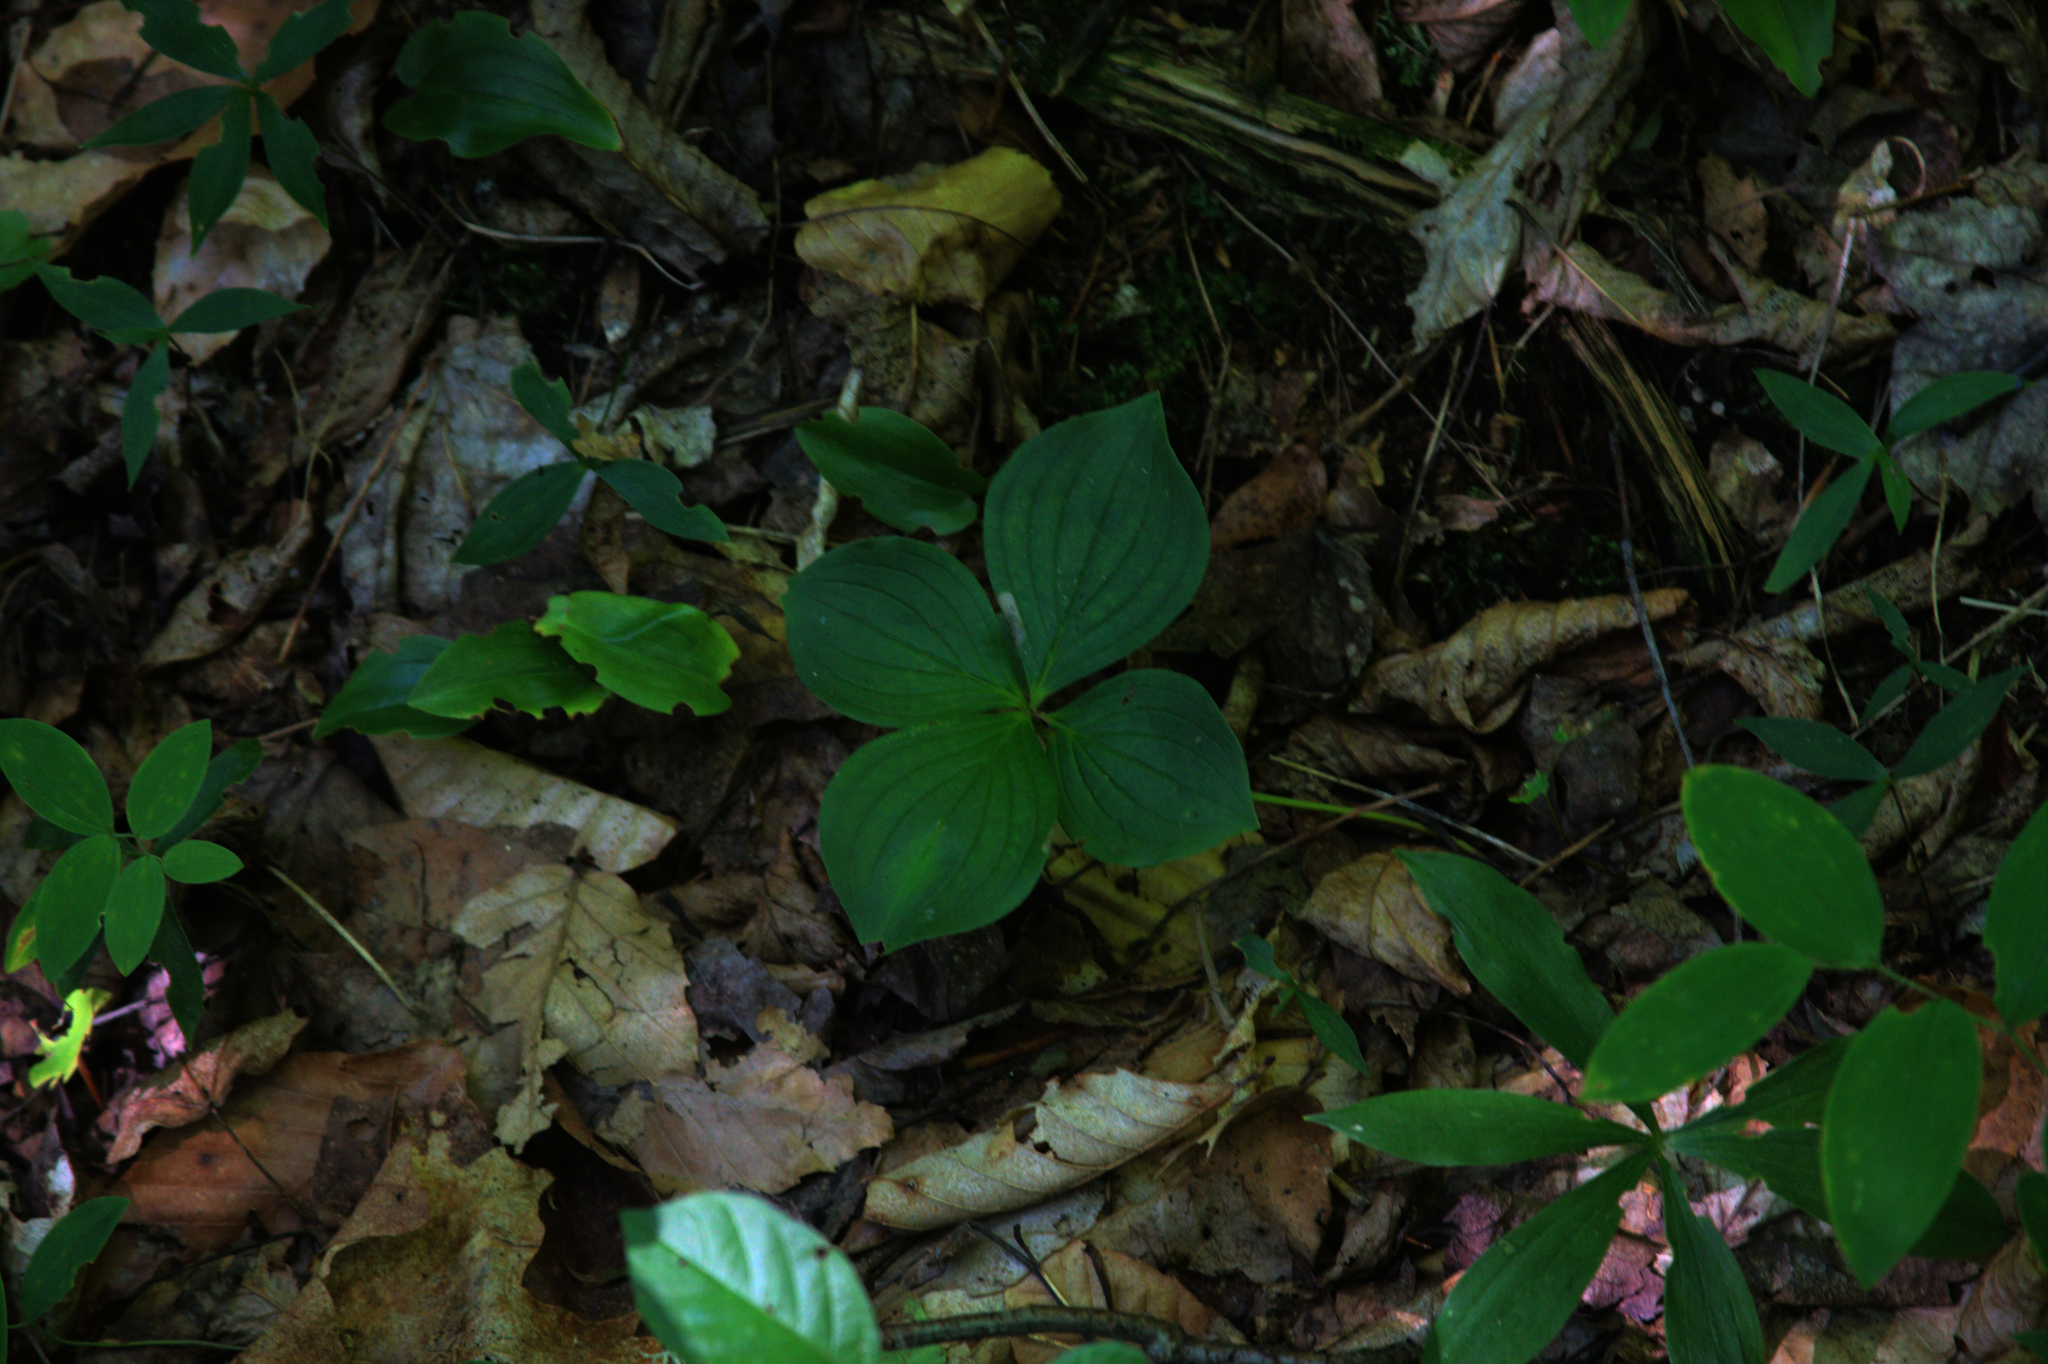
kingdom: Plantae
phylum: Tracheophyta
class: Liliopsida
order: Liliales
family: Colchicaceae
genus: Uvularia
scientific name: Uvularia sessilifolia
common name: Straw-lily
